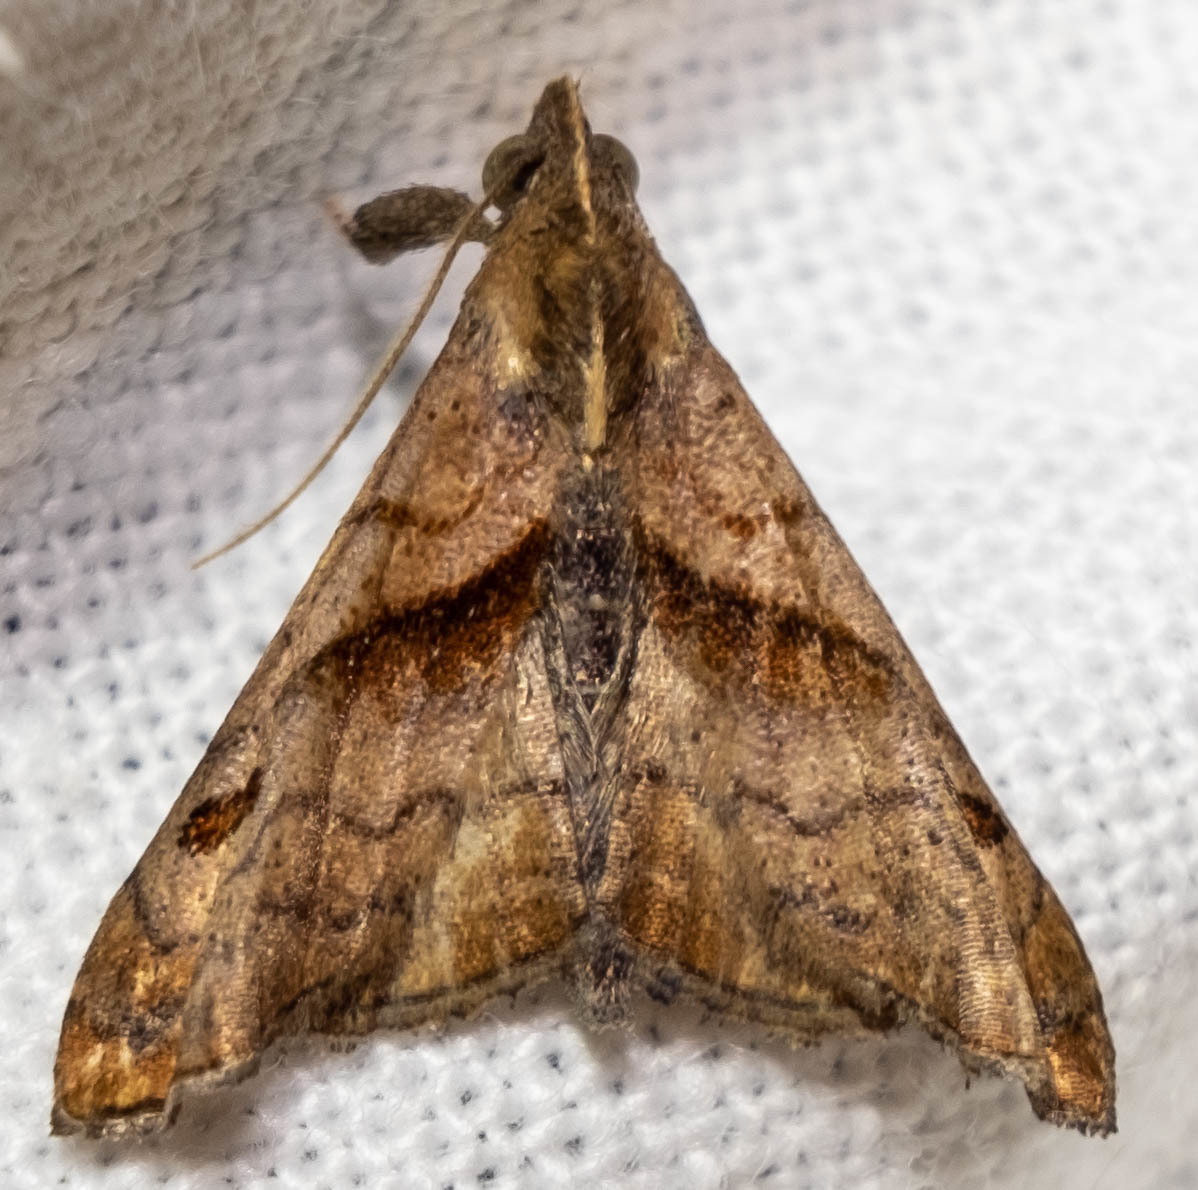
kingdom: Animalia
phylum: Arthropoda
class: Insecta
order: Lepidoptera
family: Erebidae
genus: Palthis
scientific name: Palthis angulalis
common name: Dark-spotted palthis moth
